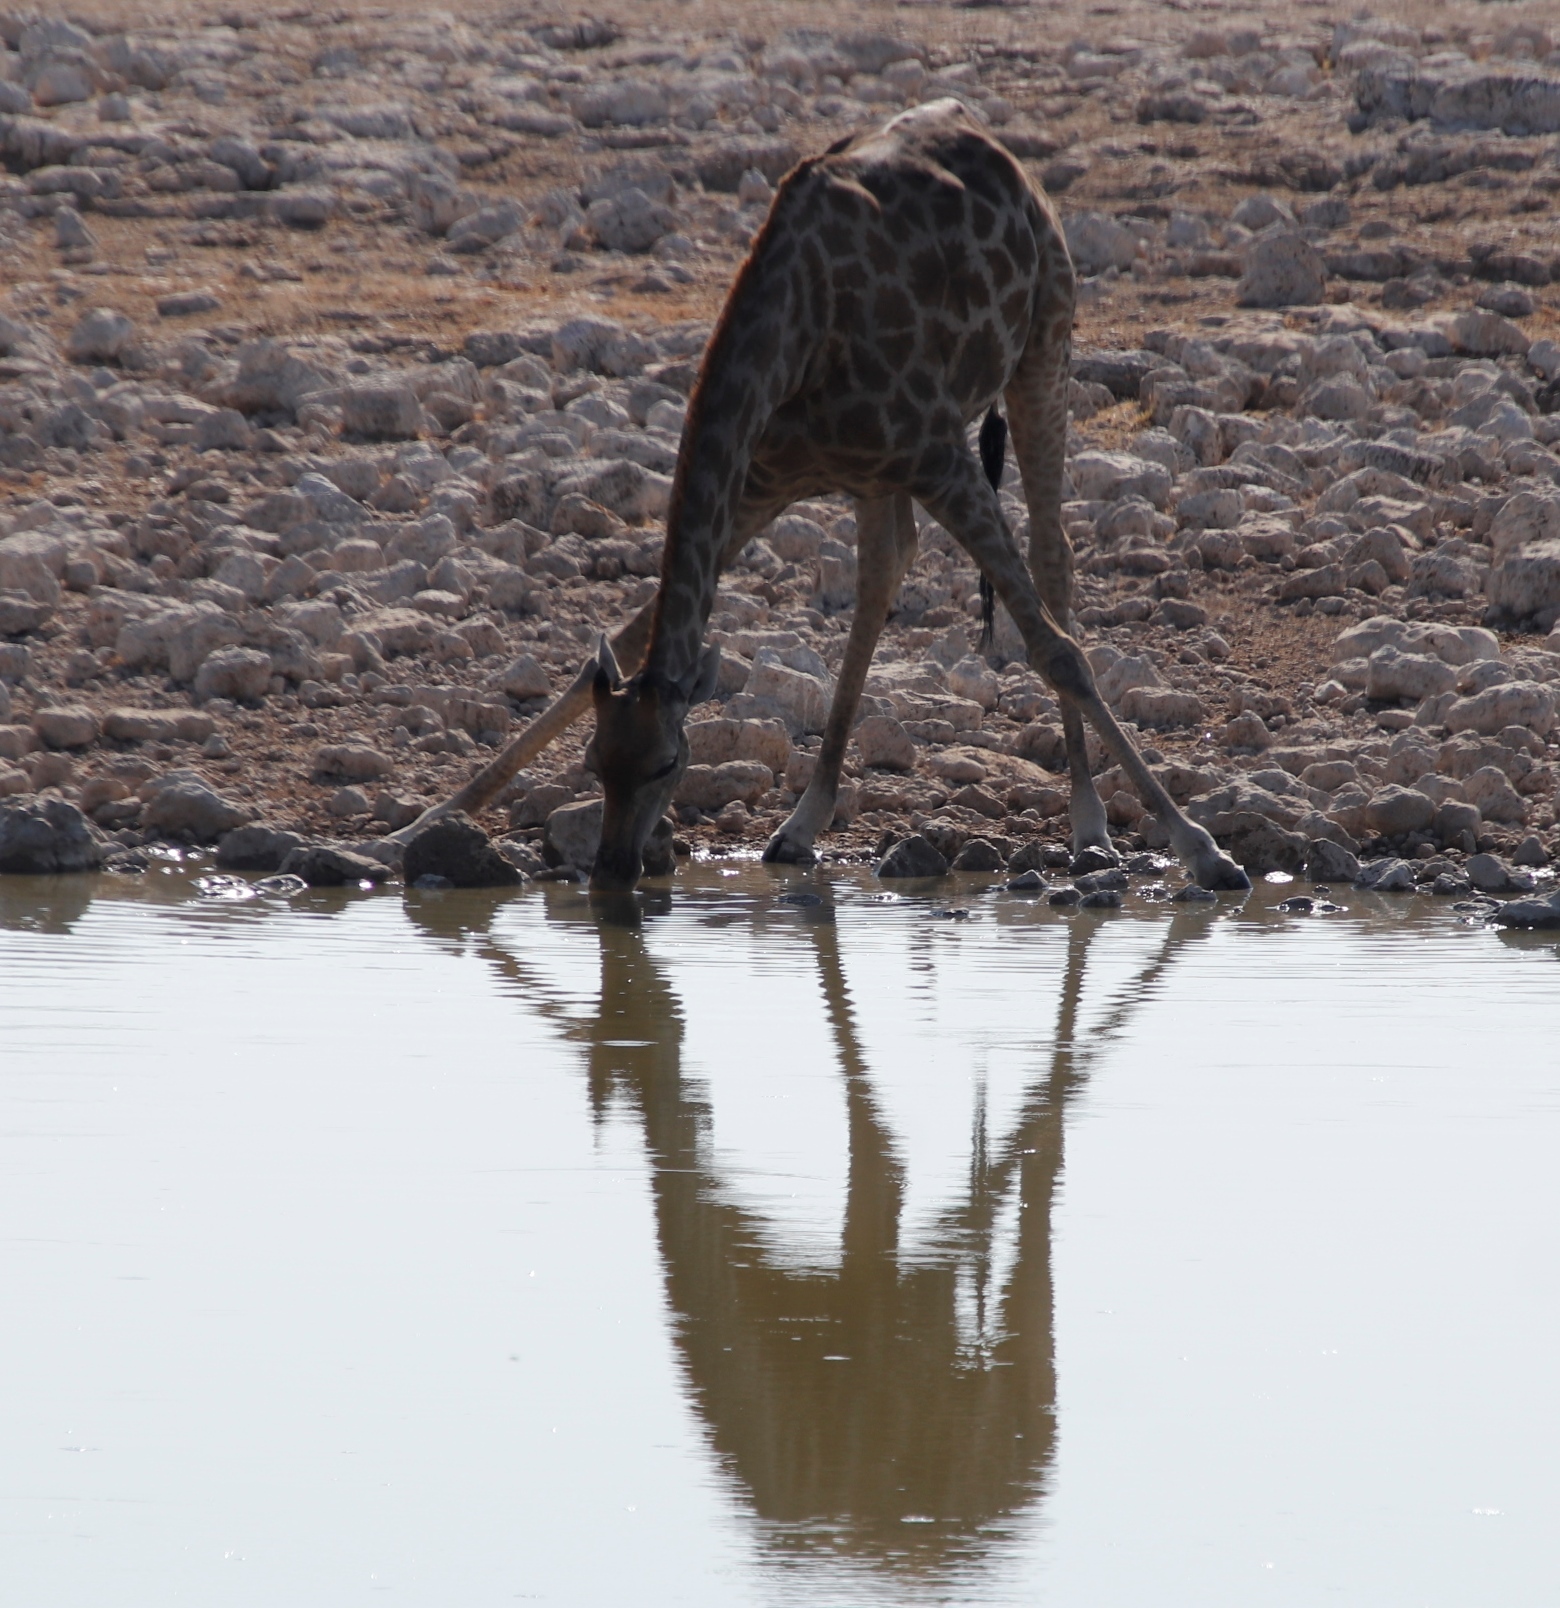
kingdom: Animalia
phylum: Chordata
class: Mammalia
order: Artiodactyla
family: Giraffidae
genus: Giraffa
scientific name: Giraffa giraffa
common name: Southern giraffe
